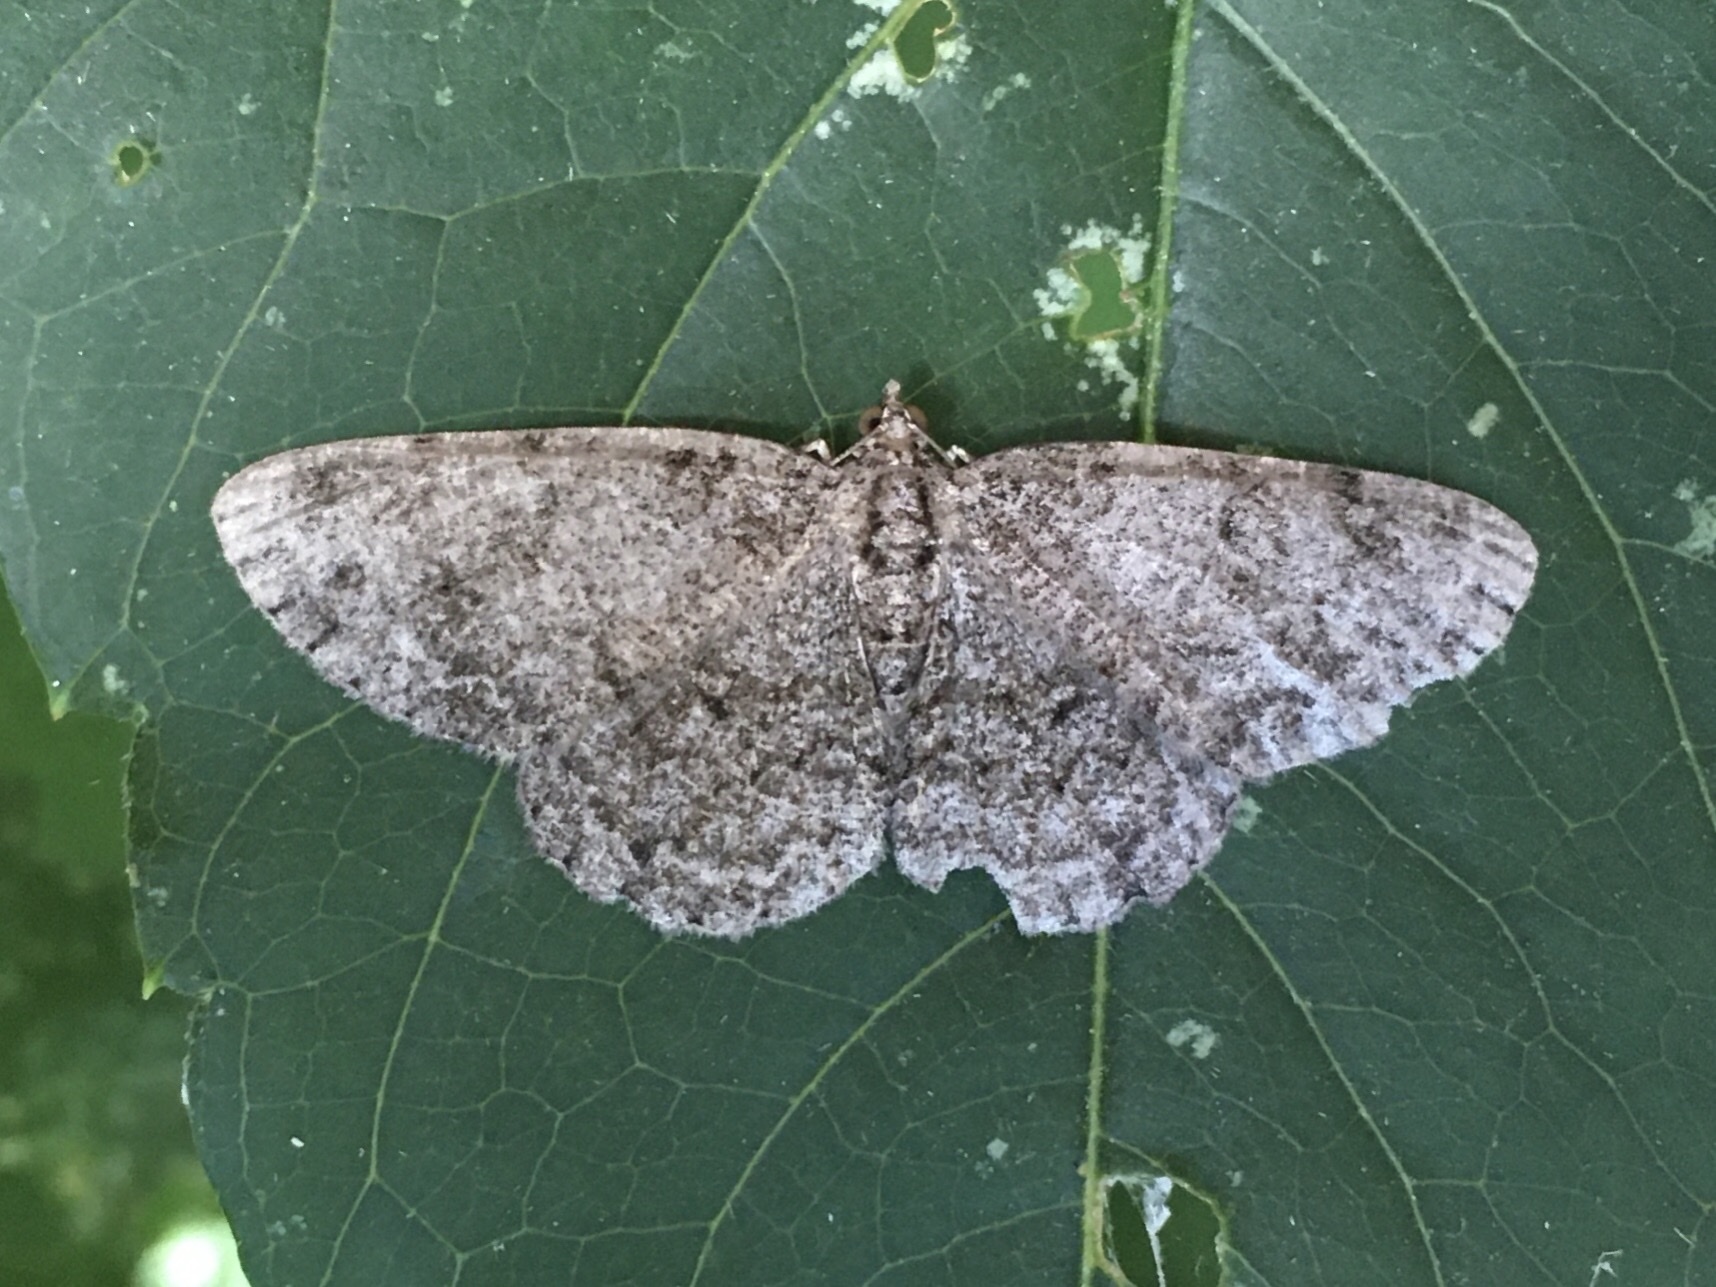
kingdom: Animalia
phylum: Arthropoda
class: Insecta
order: Lepidoptera
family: Geometridae
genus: Protoboarmia
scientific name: Protoboarmia porcelaria
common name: Porcelain gray
